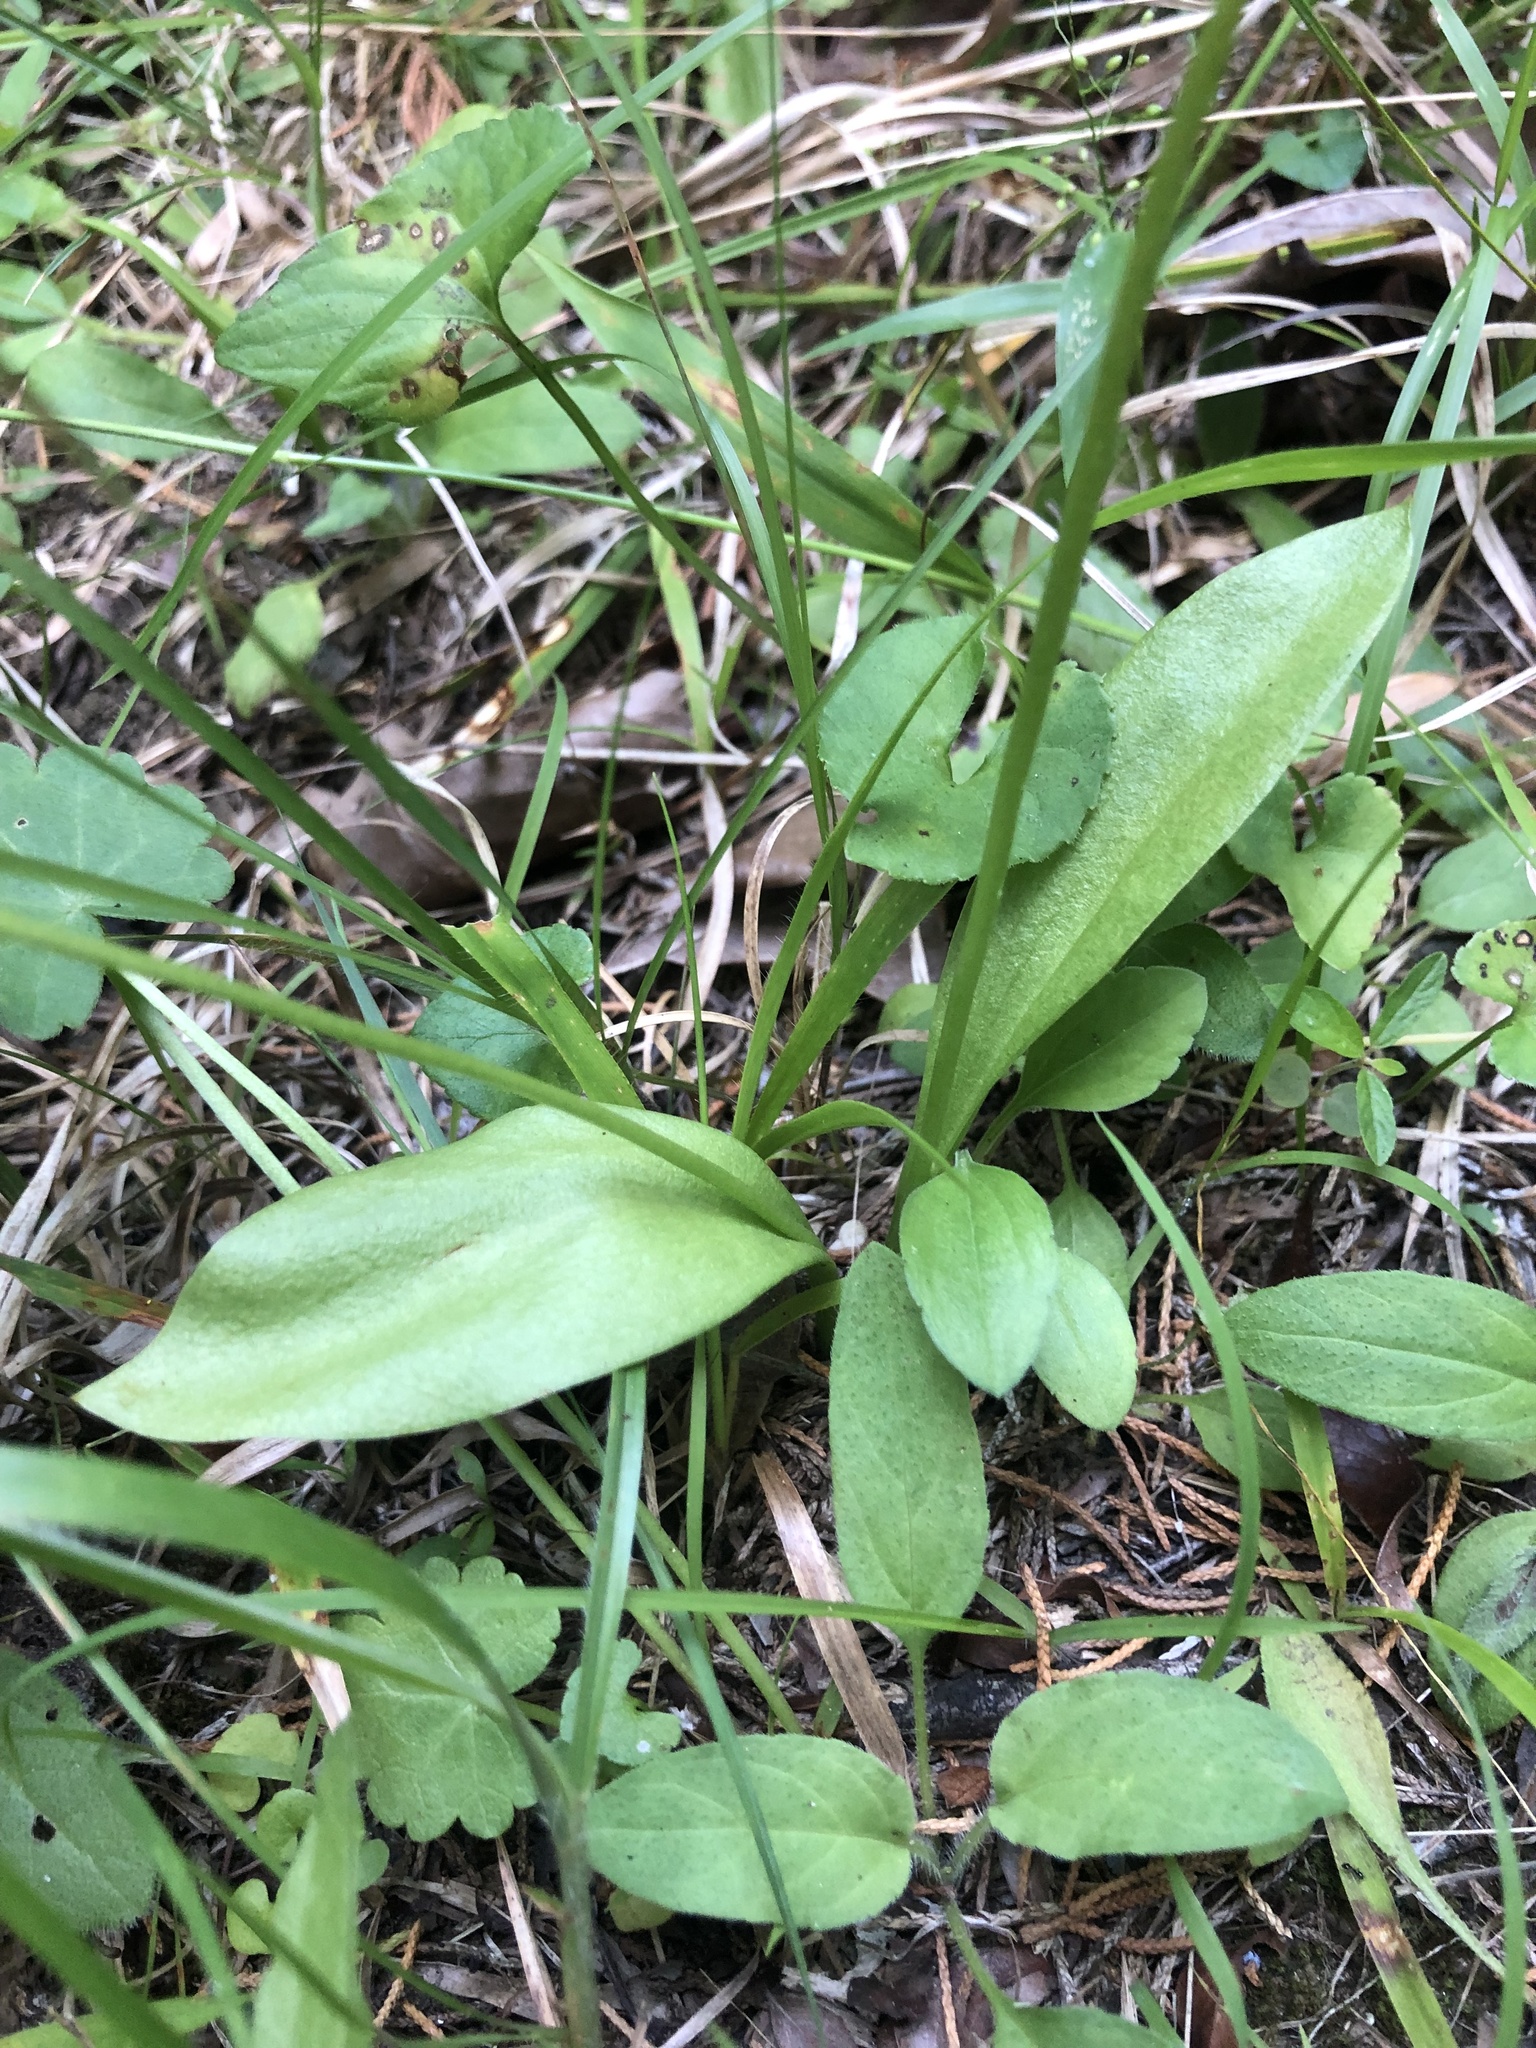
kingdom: Plantae
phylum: Tracheophyta
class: Polypodiopsida
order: Ophioglossales
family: Ophioglossaceae
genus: Ophioglossum
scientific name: Ophioglossum engelmannii
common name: Limestone adder's-tongue
